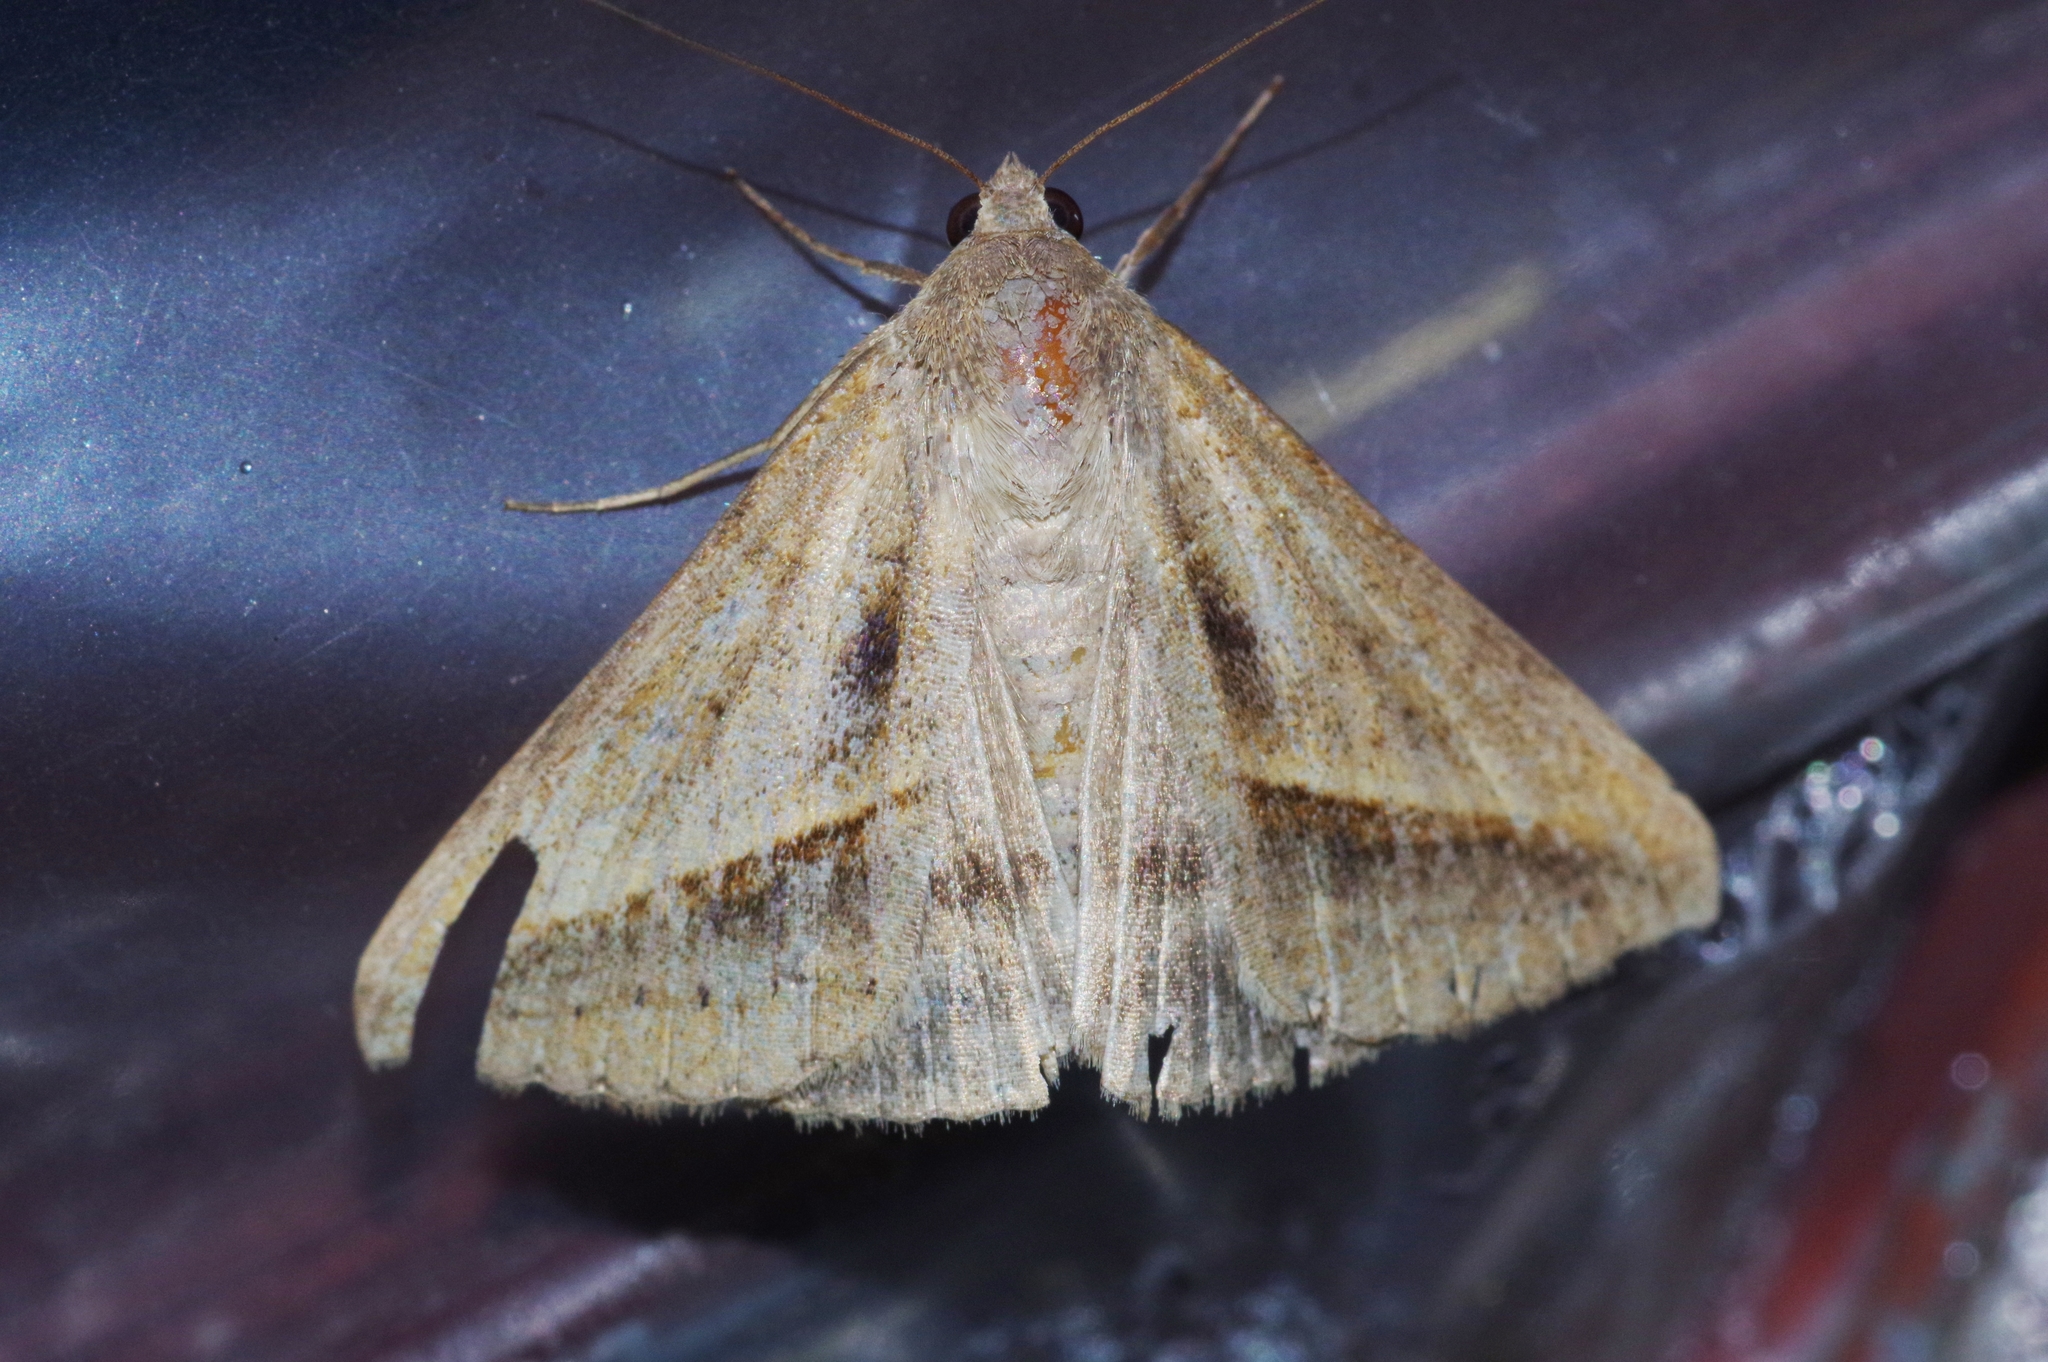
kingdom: Animalia
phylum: Arthropoda
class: Insecta
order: Lepidoptera
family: Erebidae
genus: Mocis
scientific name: Mocis frugalis
